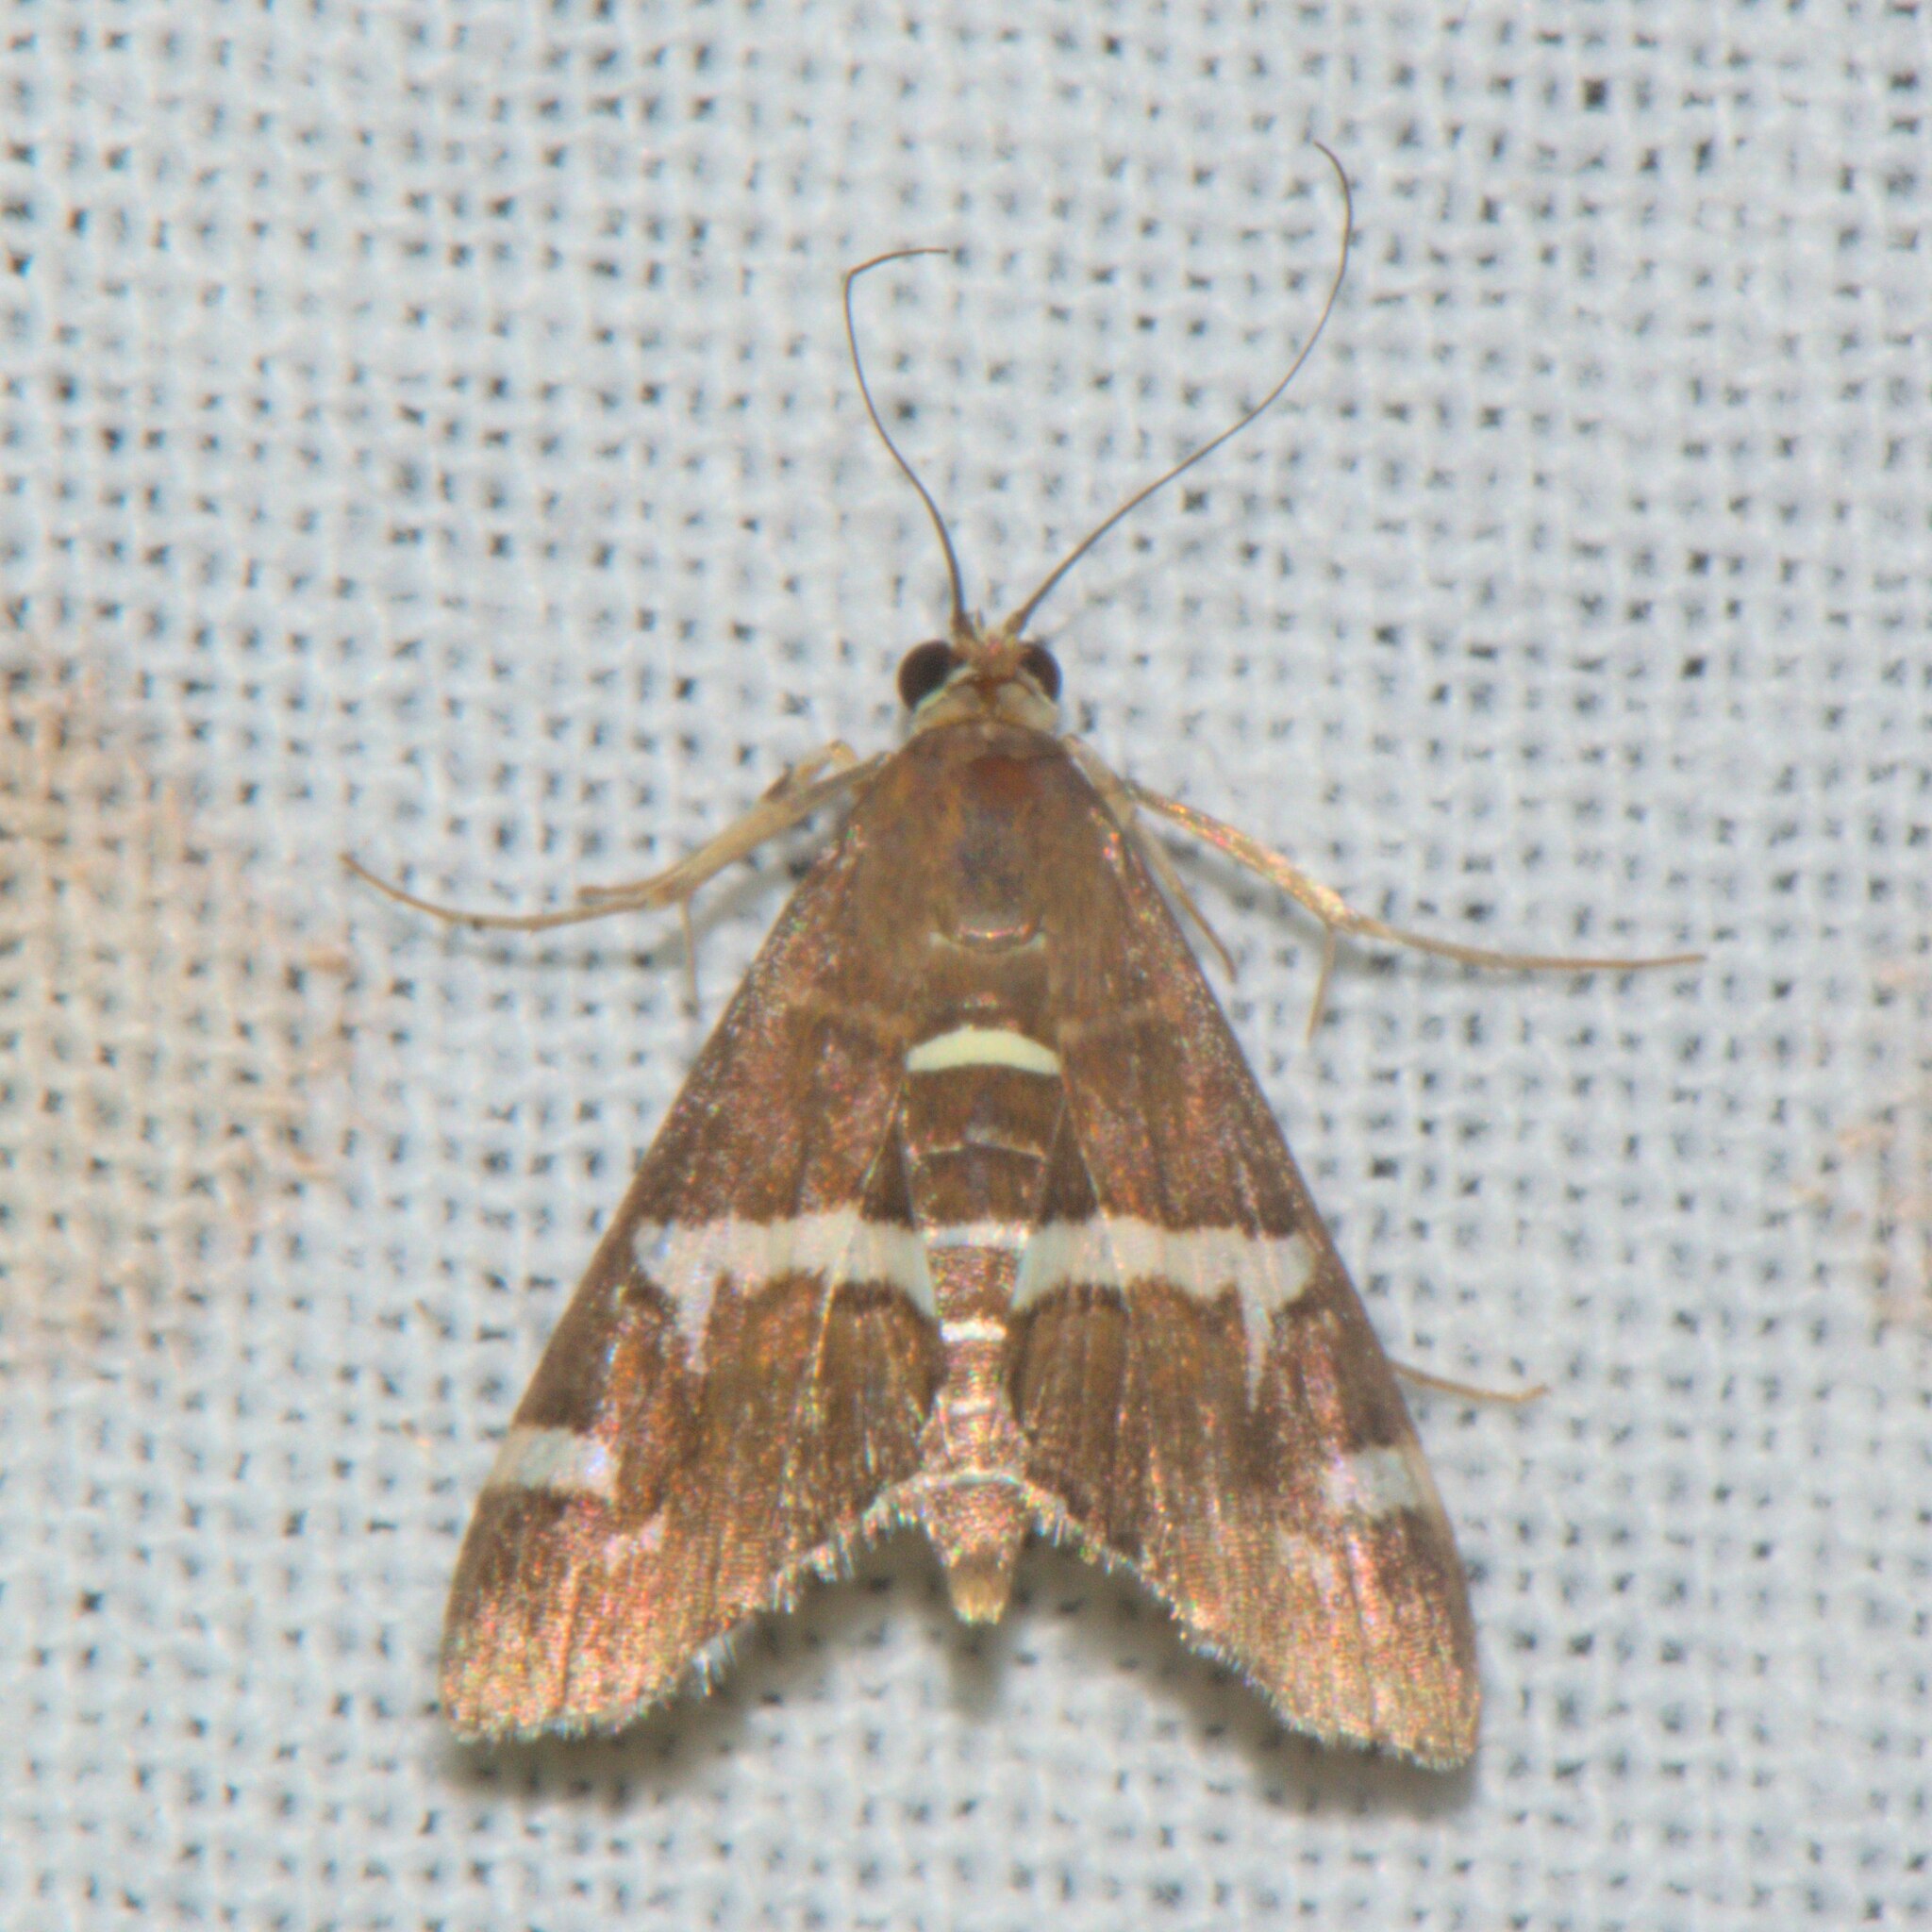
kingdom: Animalia
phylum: Arthropoda
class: Insecta
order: Lepidoptera
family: Crambidae
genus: Spoladea
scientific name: Spoladea recurvalis
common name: Beet webworm moth
